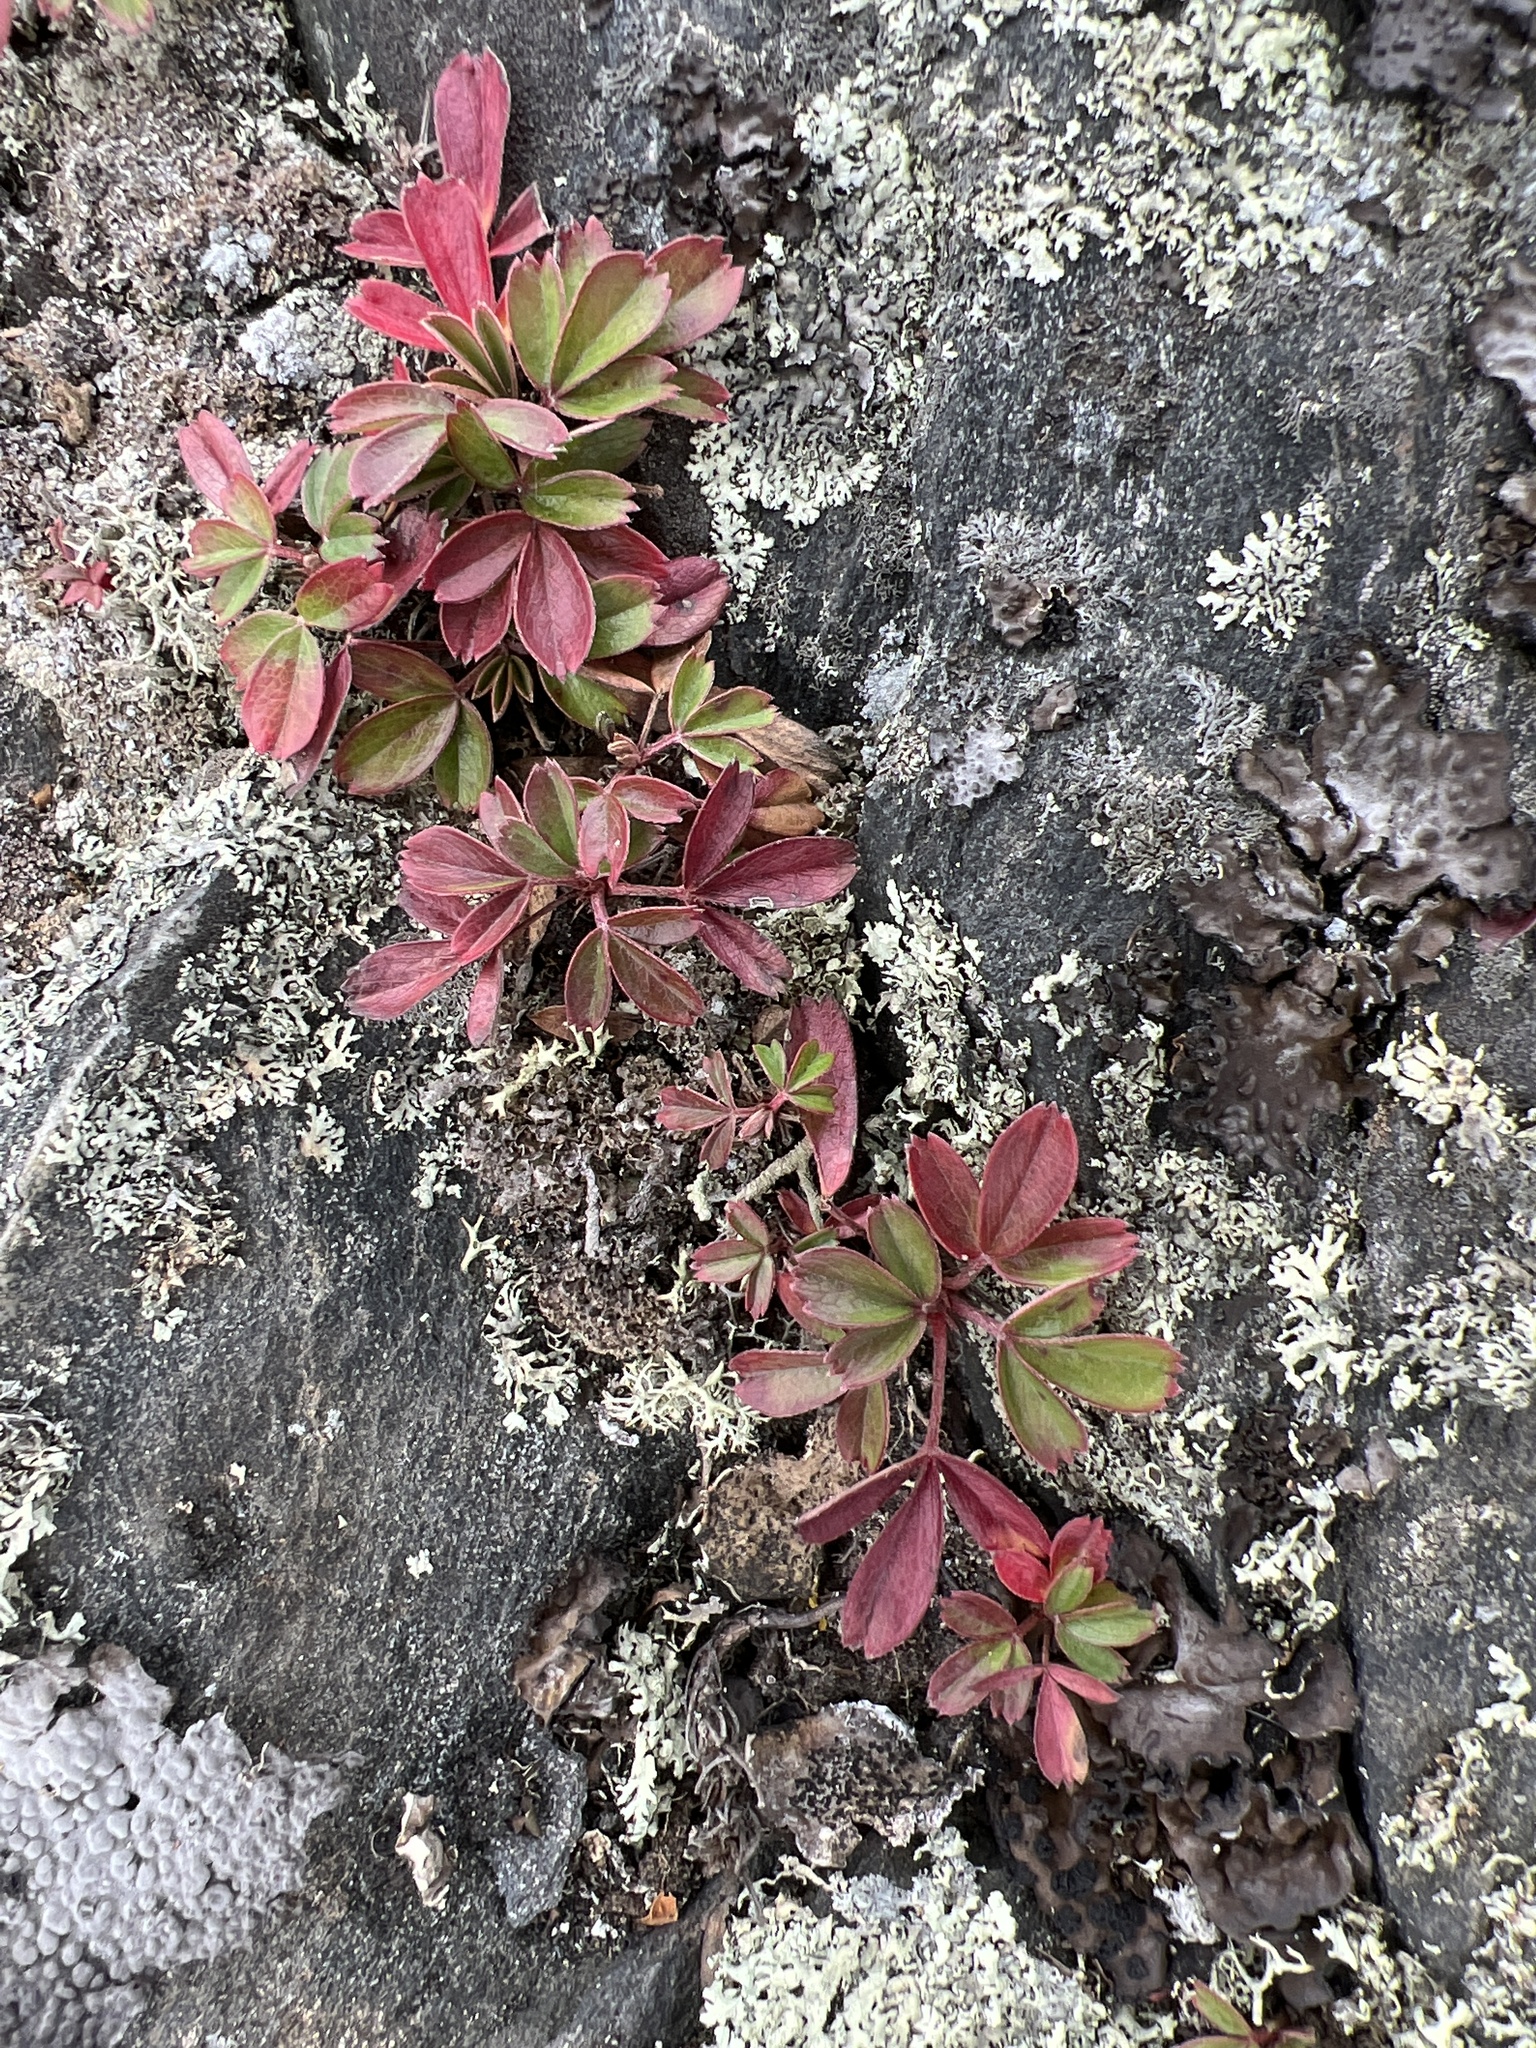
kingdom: Plantae
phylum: Tracheophyta
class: Magnoliopsida
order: Rosales
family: Rosaceae
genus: Sibbaldia
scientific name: Sibbaldia tridentata
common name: Three-toothed cinquefoil
